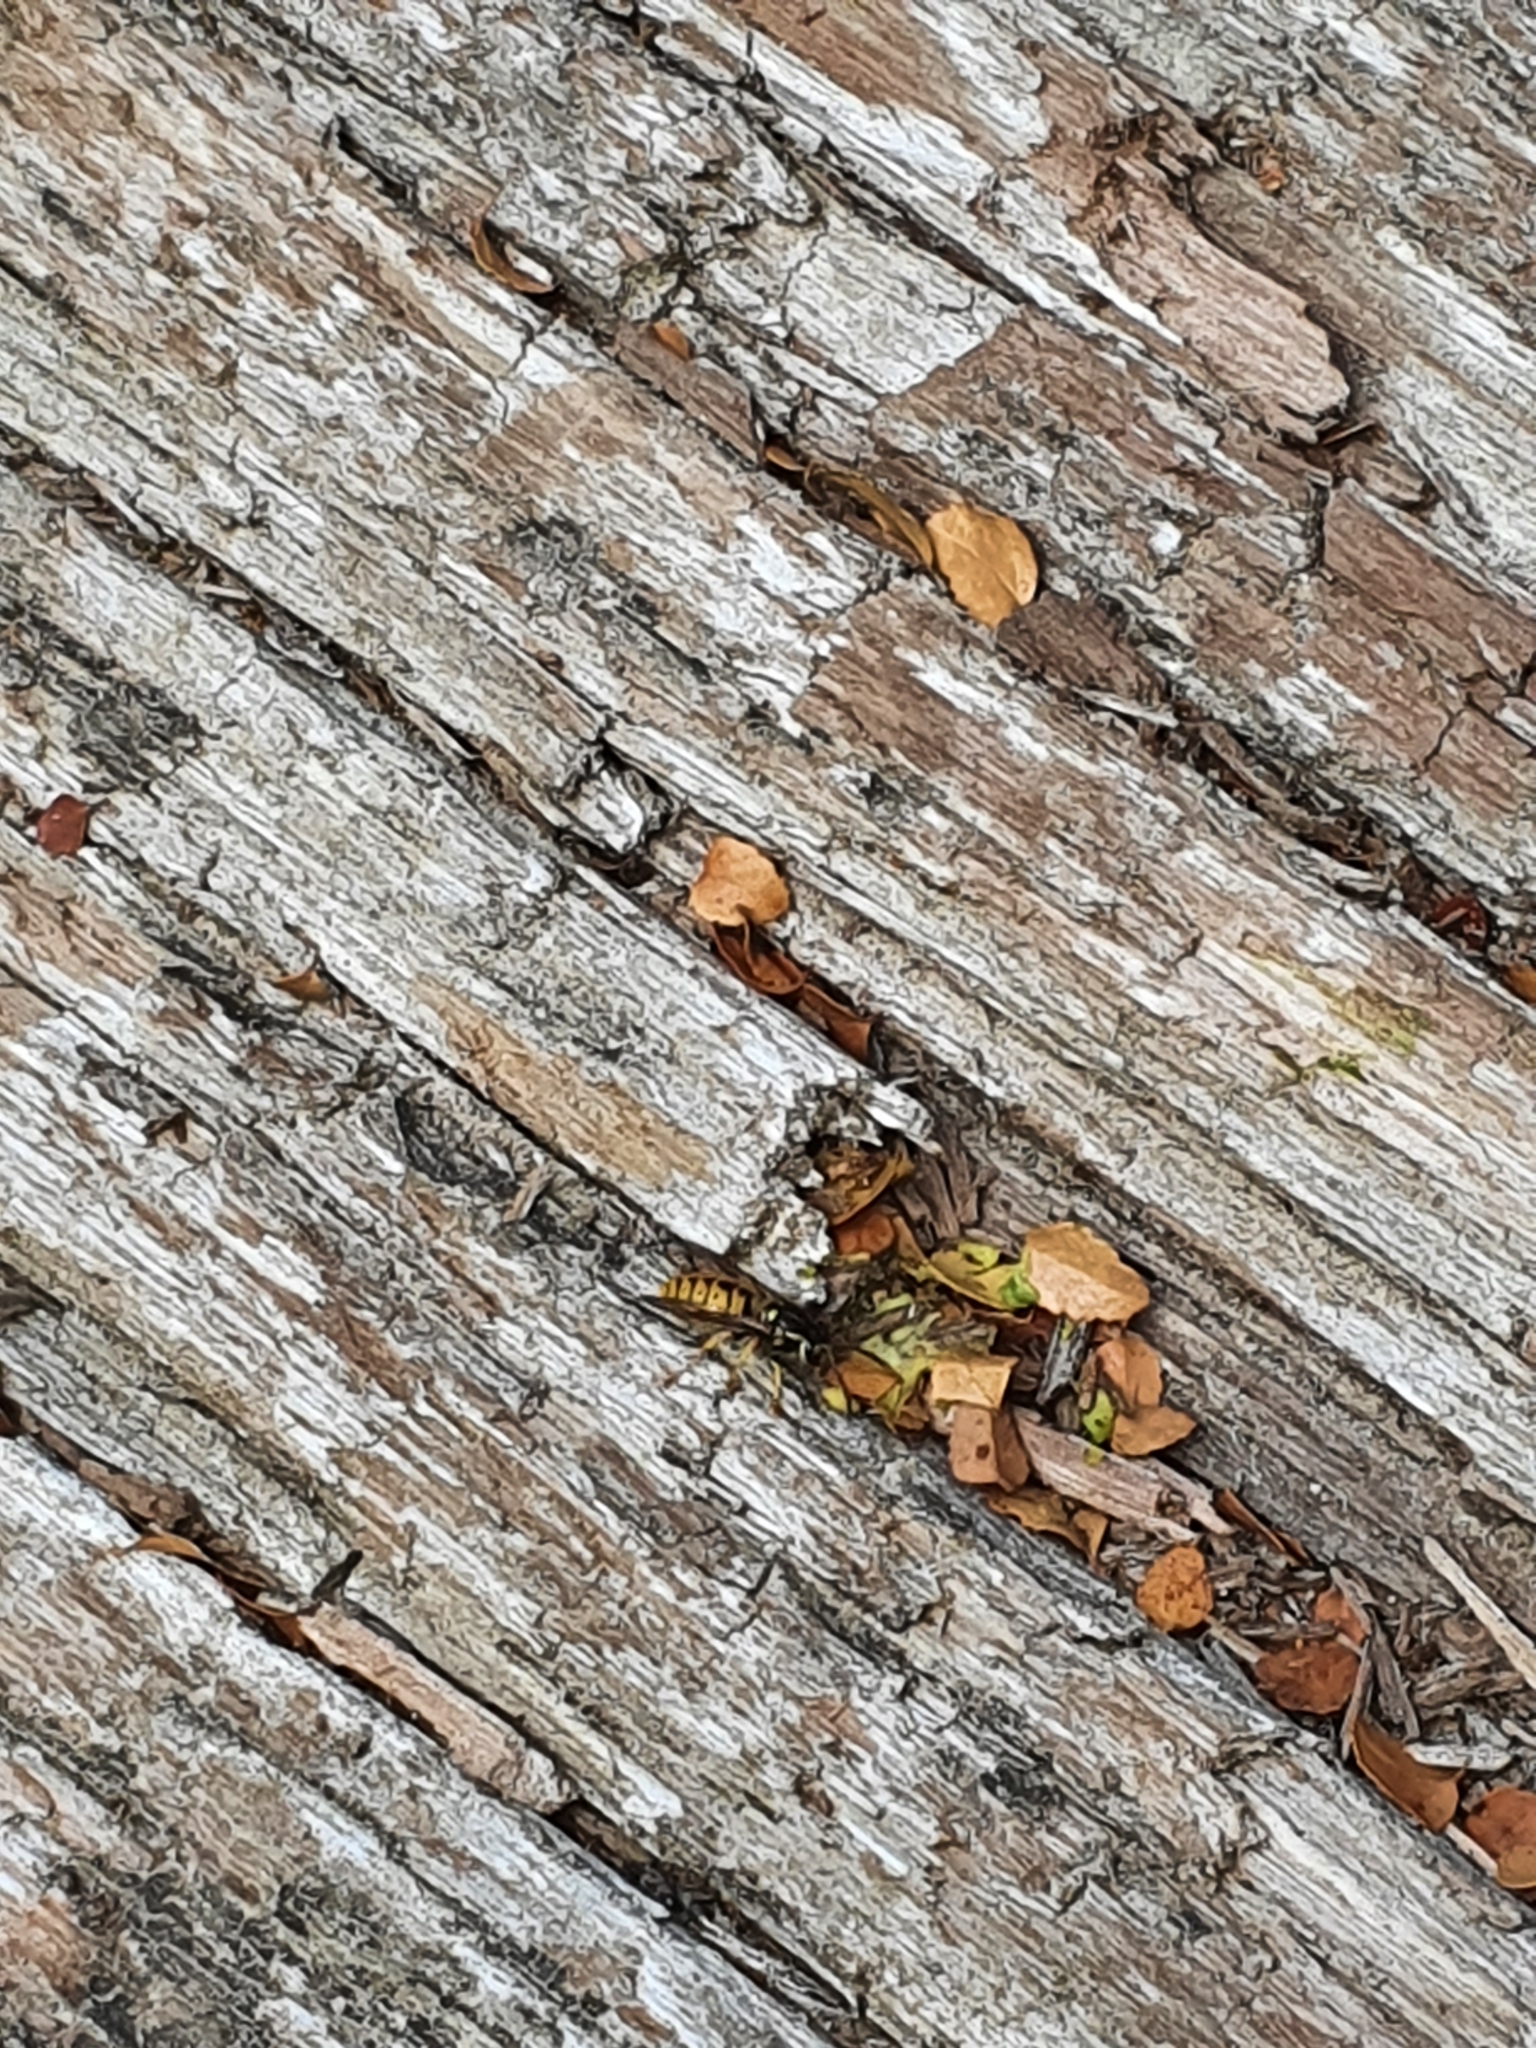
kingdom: Animalia
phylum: Arthropoda
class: Insecta
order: Hymenoptera
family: Vespidae
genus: Vespula
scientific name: Vespula germanica
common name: German wasp
